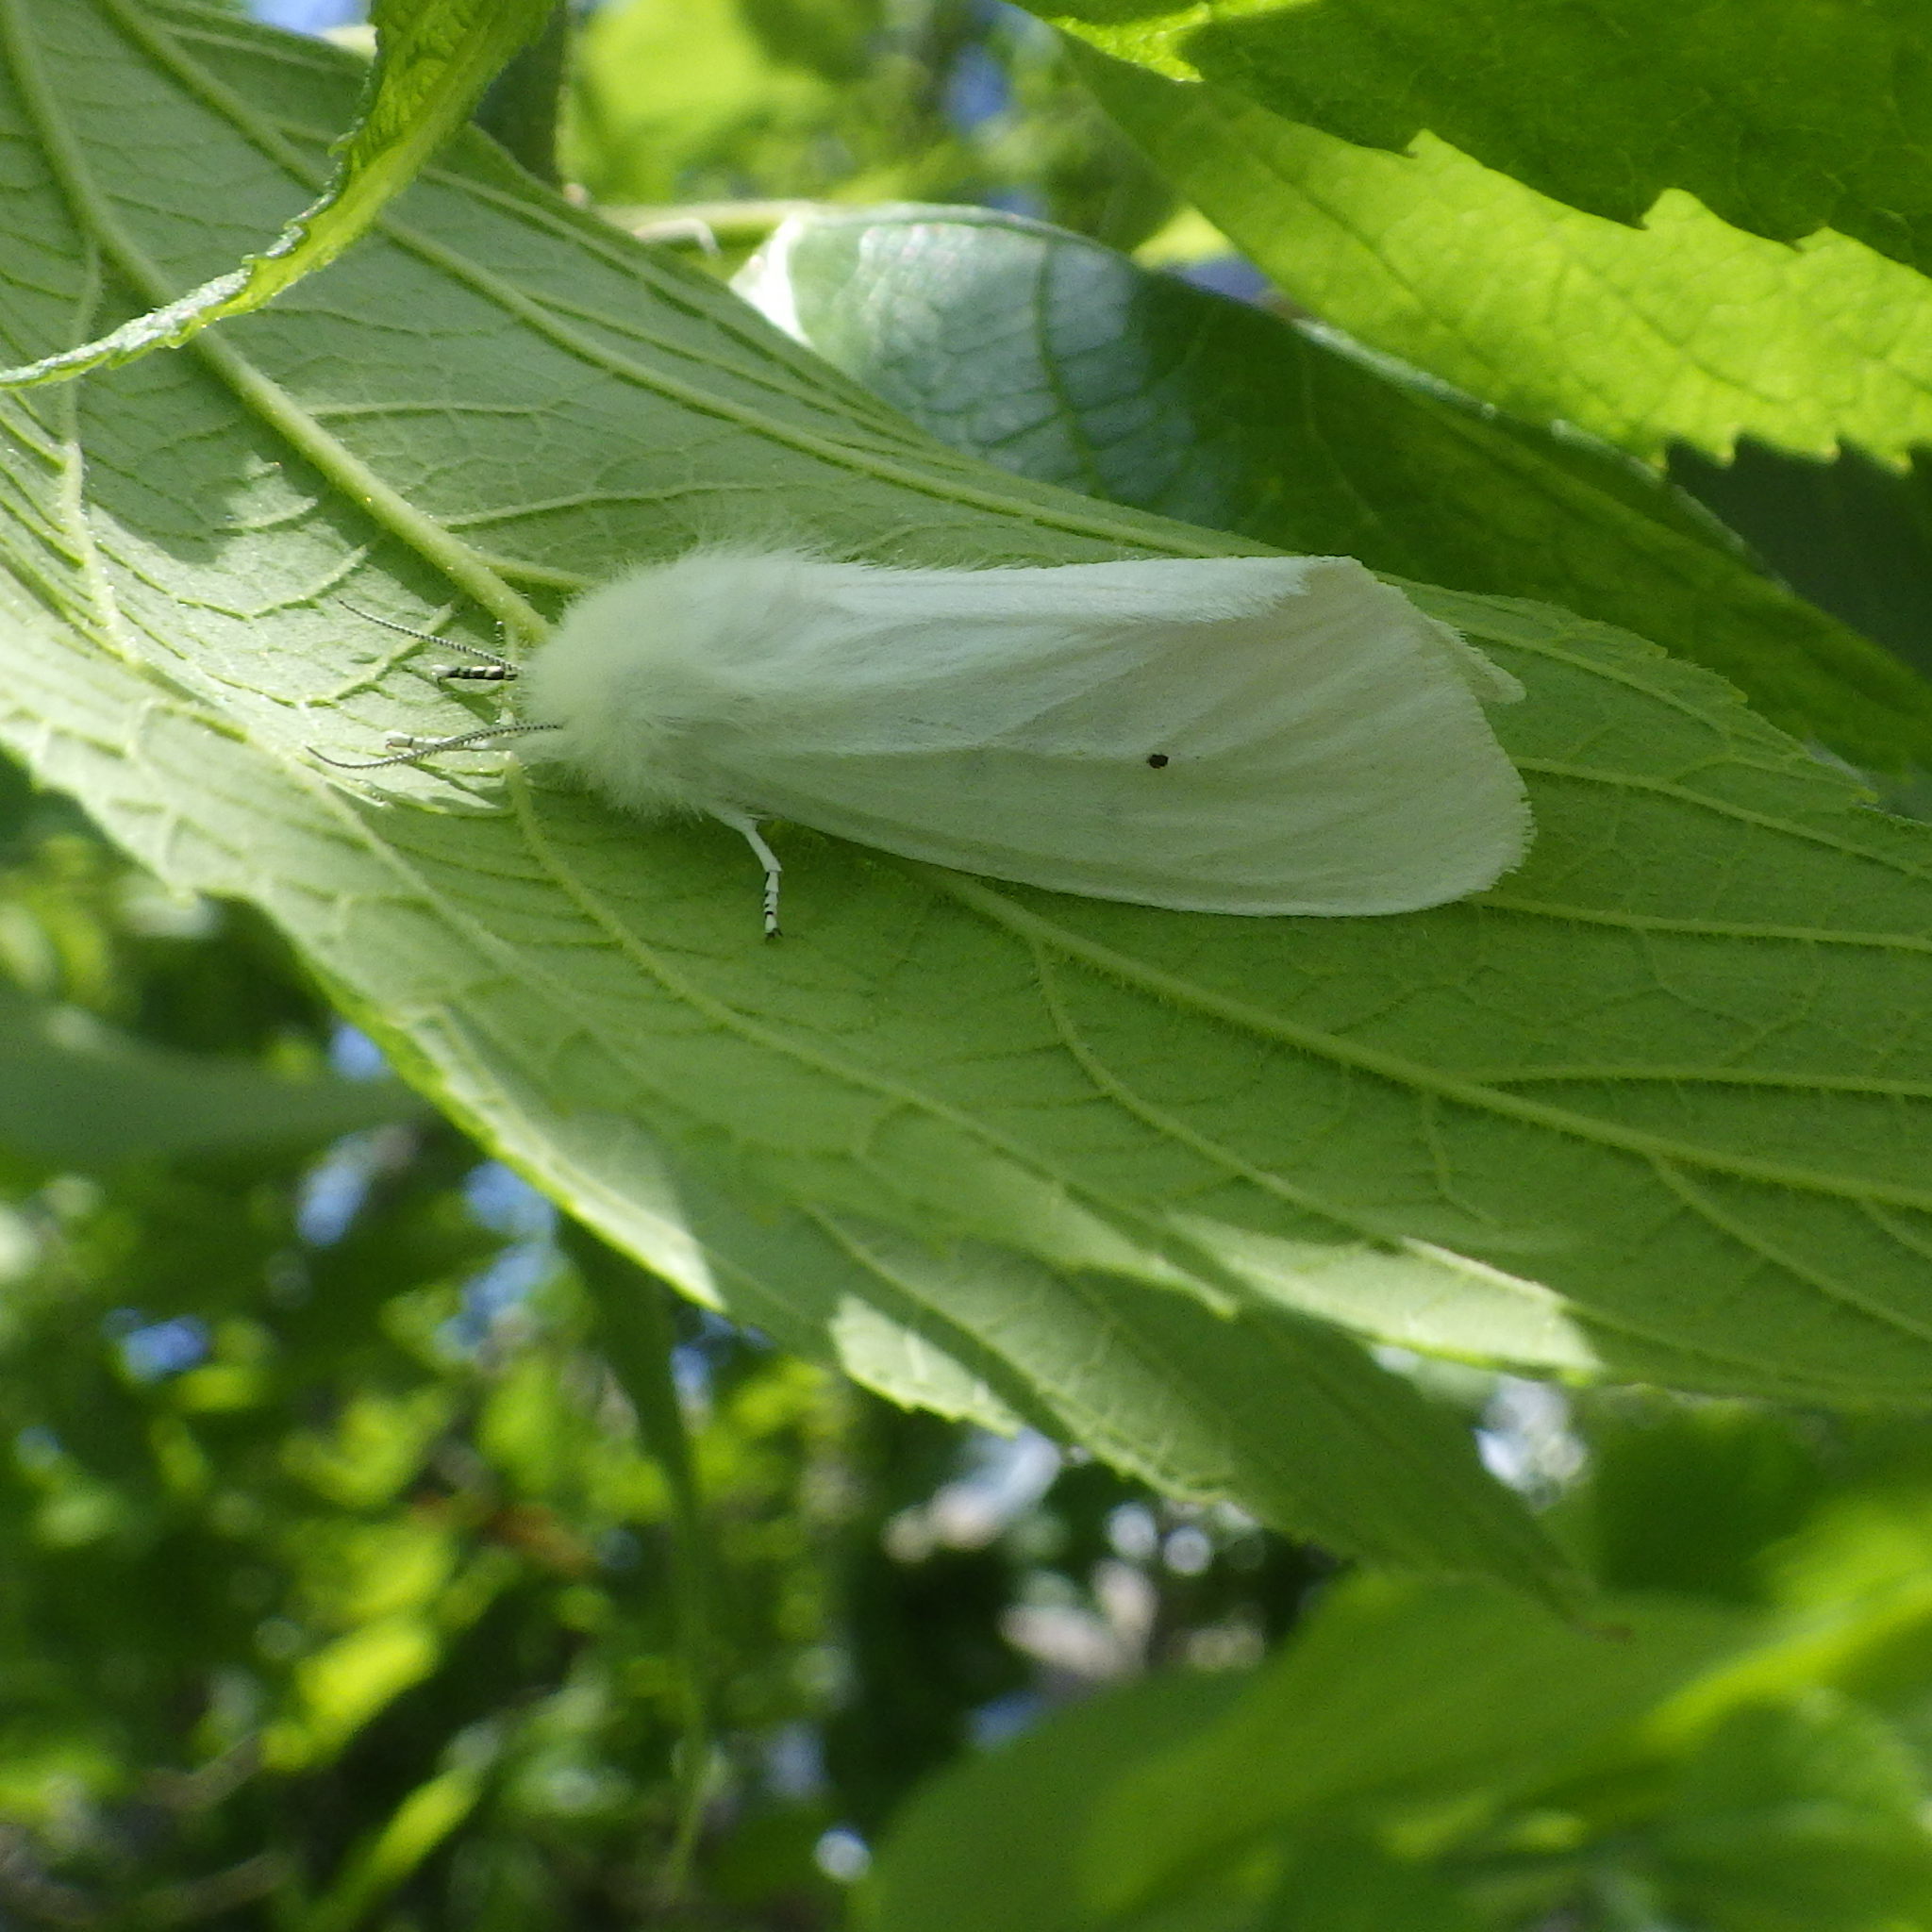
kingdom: Animalia
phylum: Arthropoda
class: Insecta
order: Lepidoptera
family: Erebidae
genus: Spilosoma
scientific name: Spilosoma virginica
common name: Virginia tiger moth
